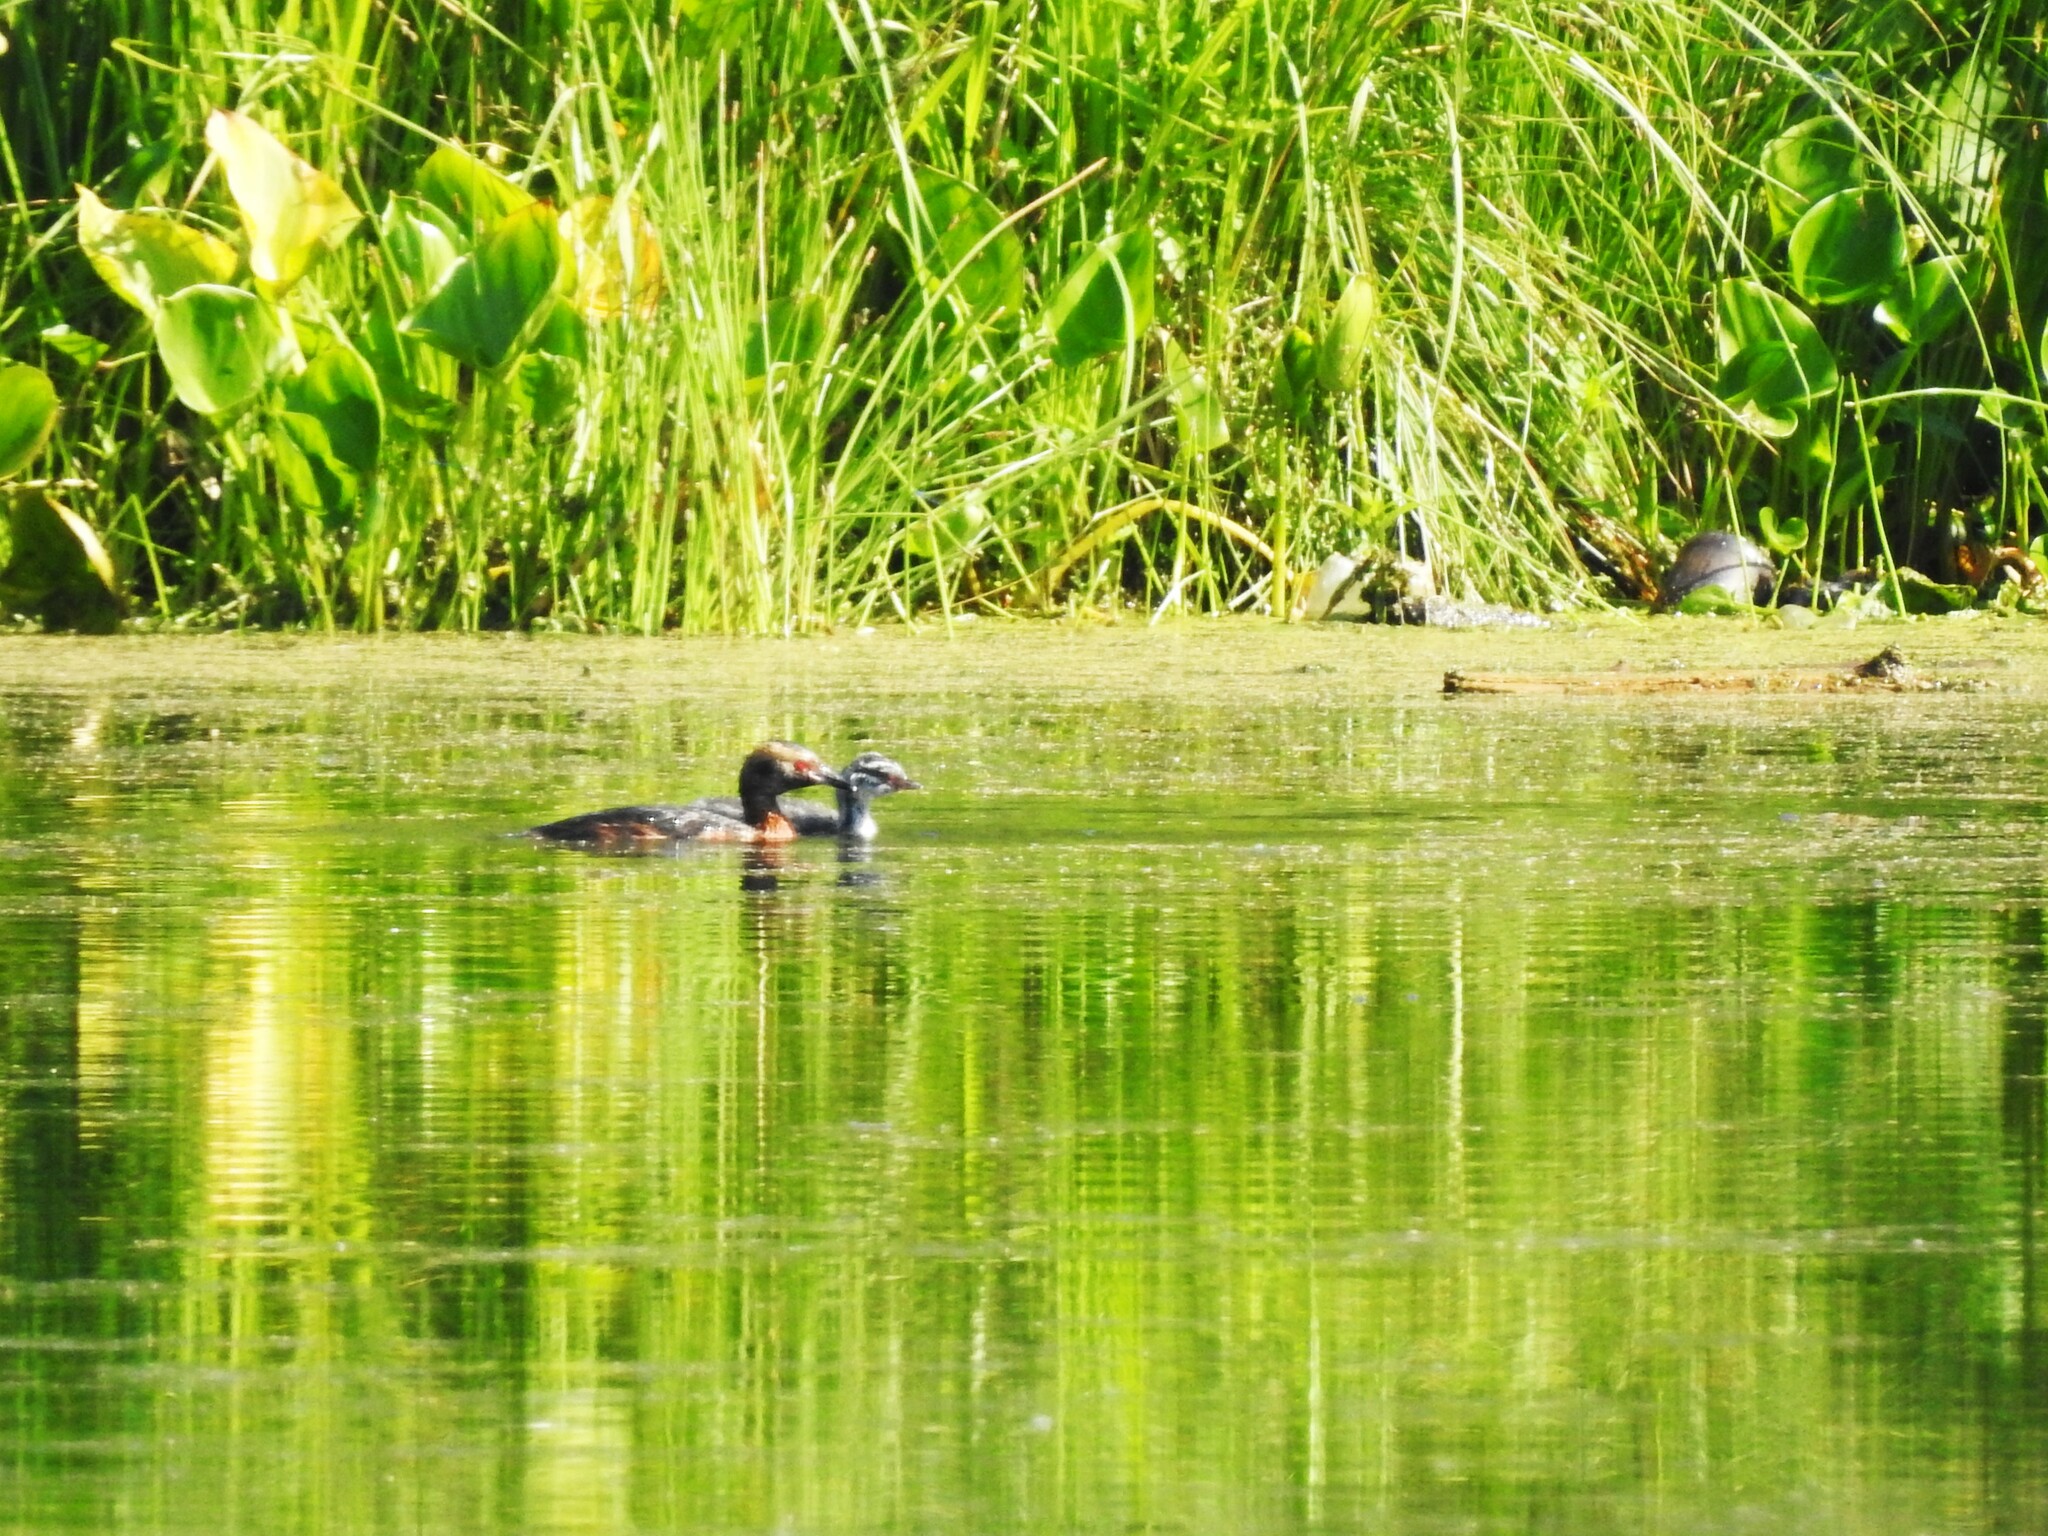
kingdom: Animalia
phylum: Chordata
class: Aves
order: Podicipediformes
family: Podicipedidae
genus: Podiceps
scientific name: Podiceps auritus
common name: Horned grebe
